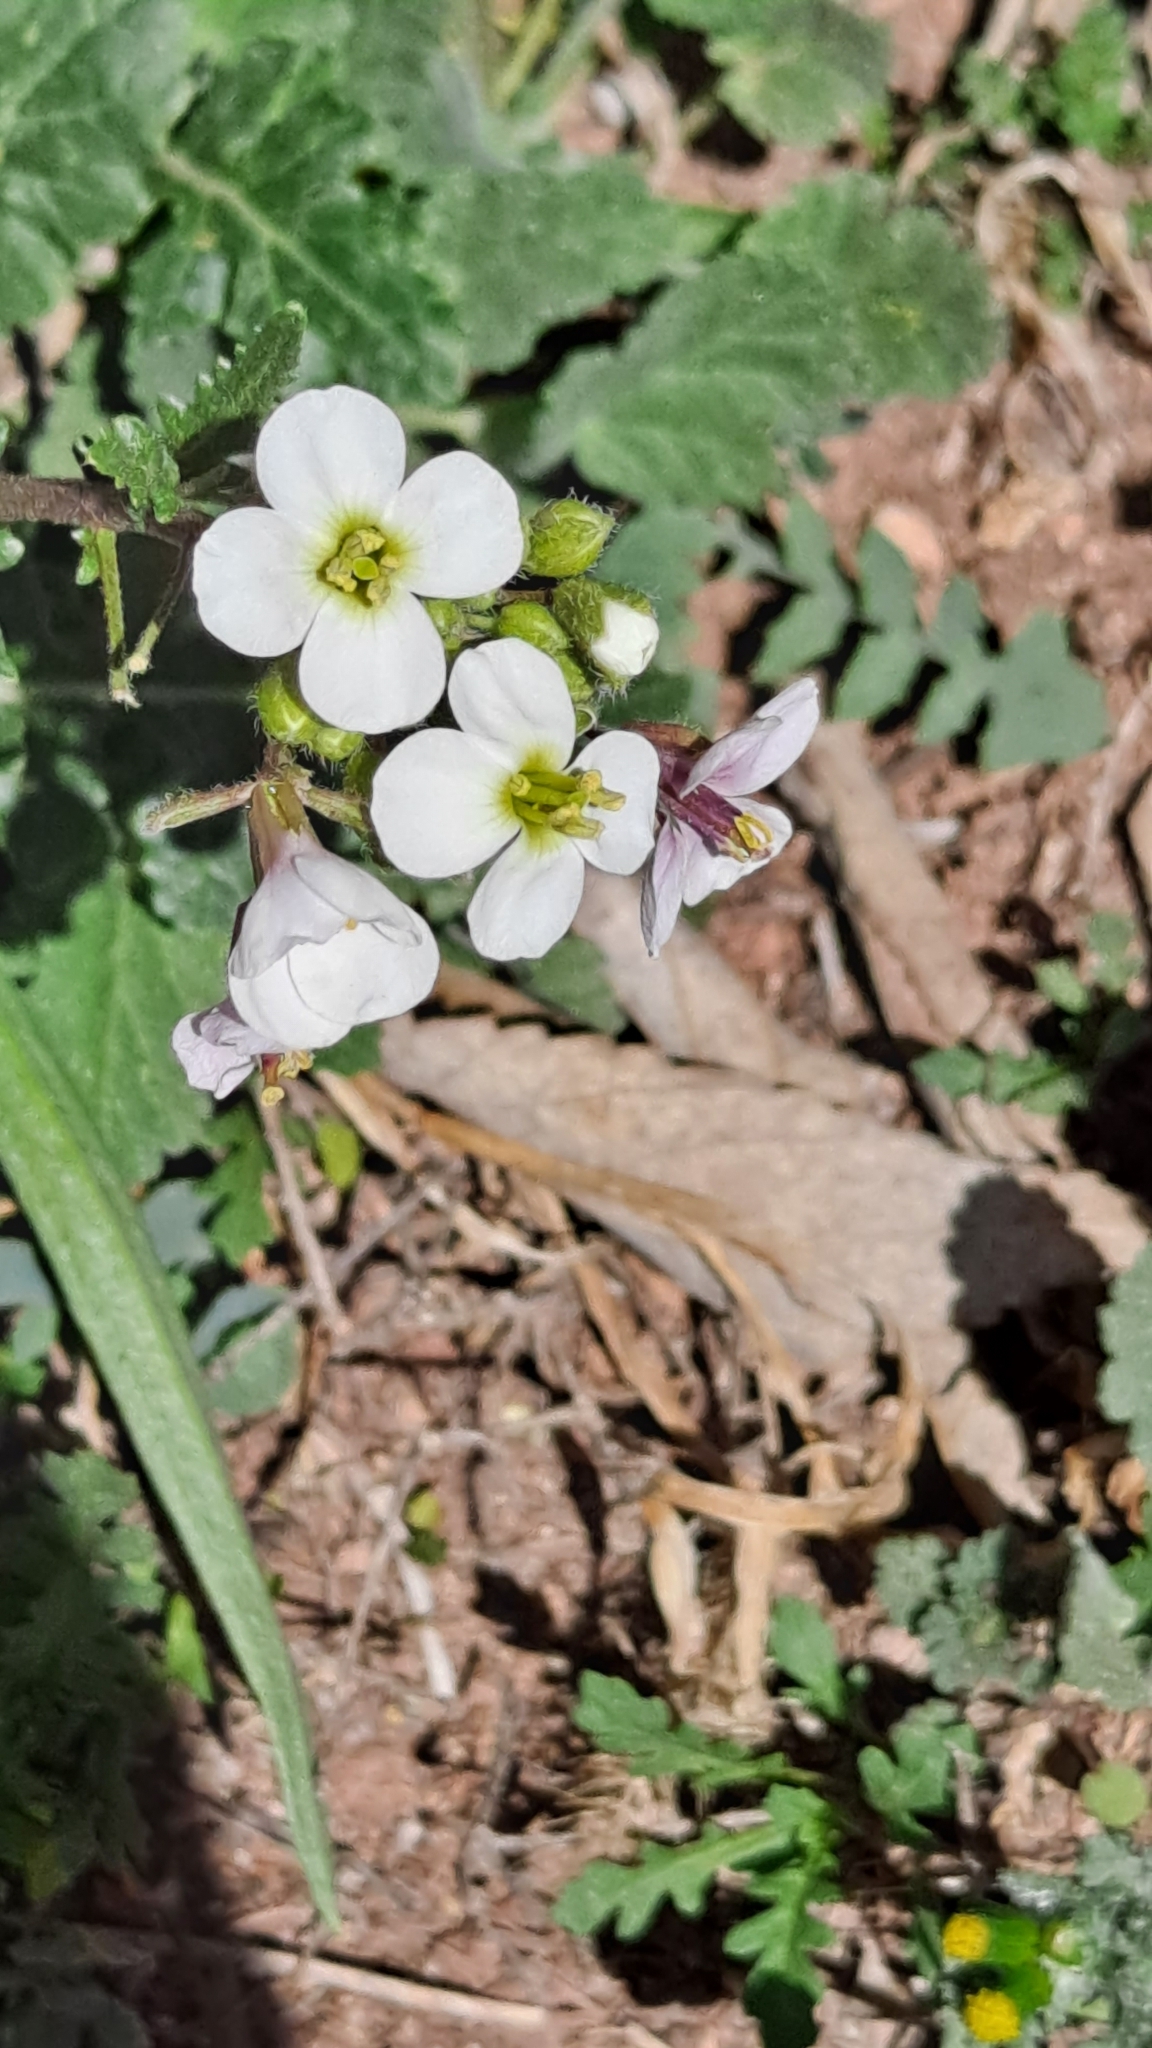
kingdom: Plantae
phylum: Tracheophyta
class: Magnoliopsida
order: Brassicales
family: Brassicaceae
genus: Diplotaxis
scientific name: Diplotaxis erucoides
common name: White rocket
